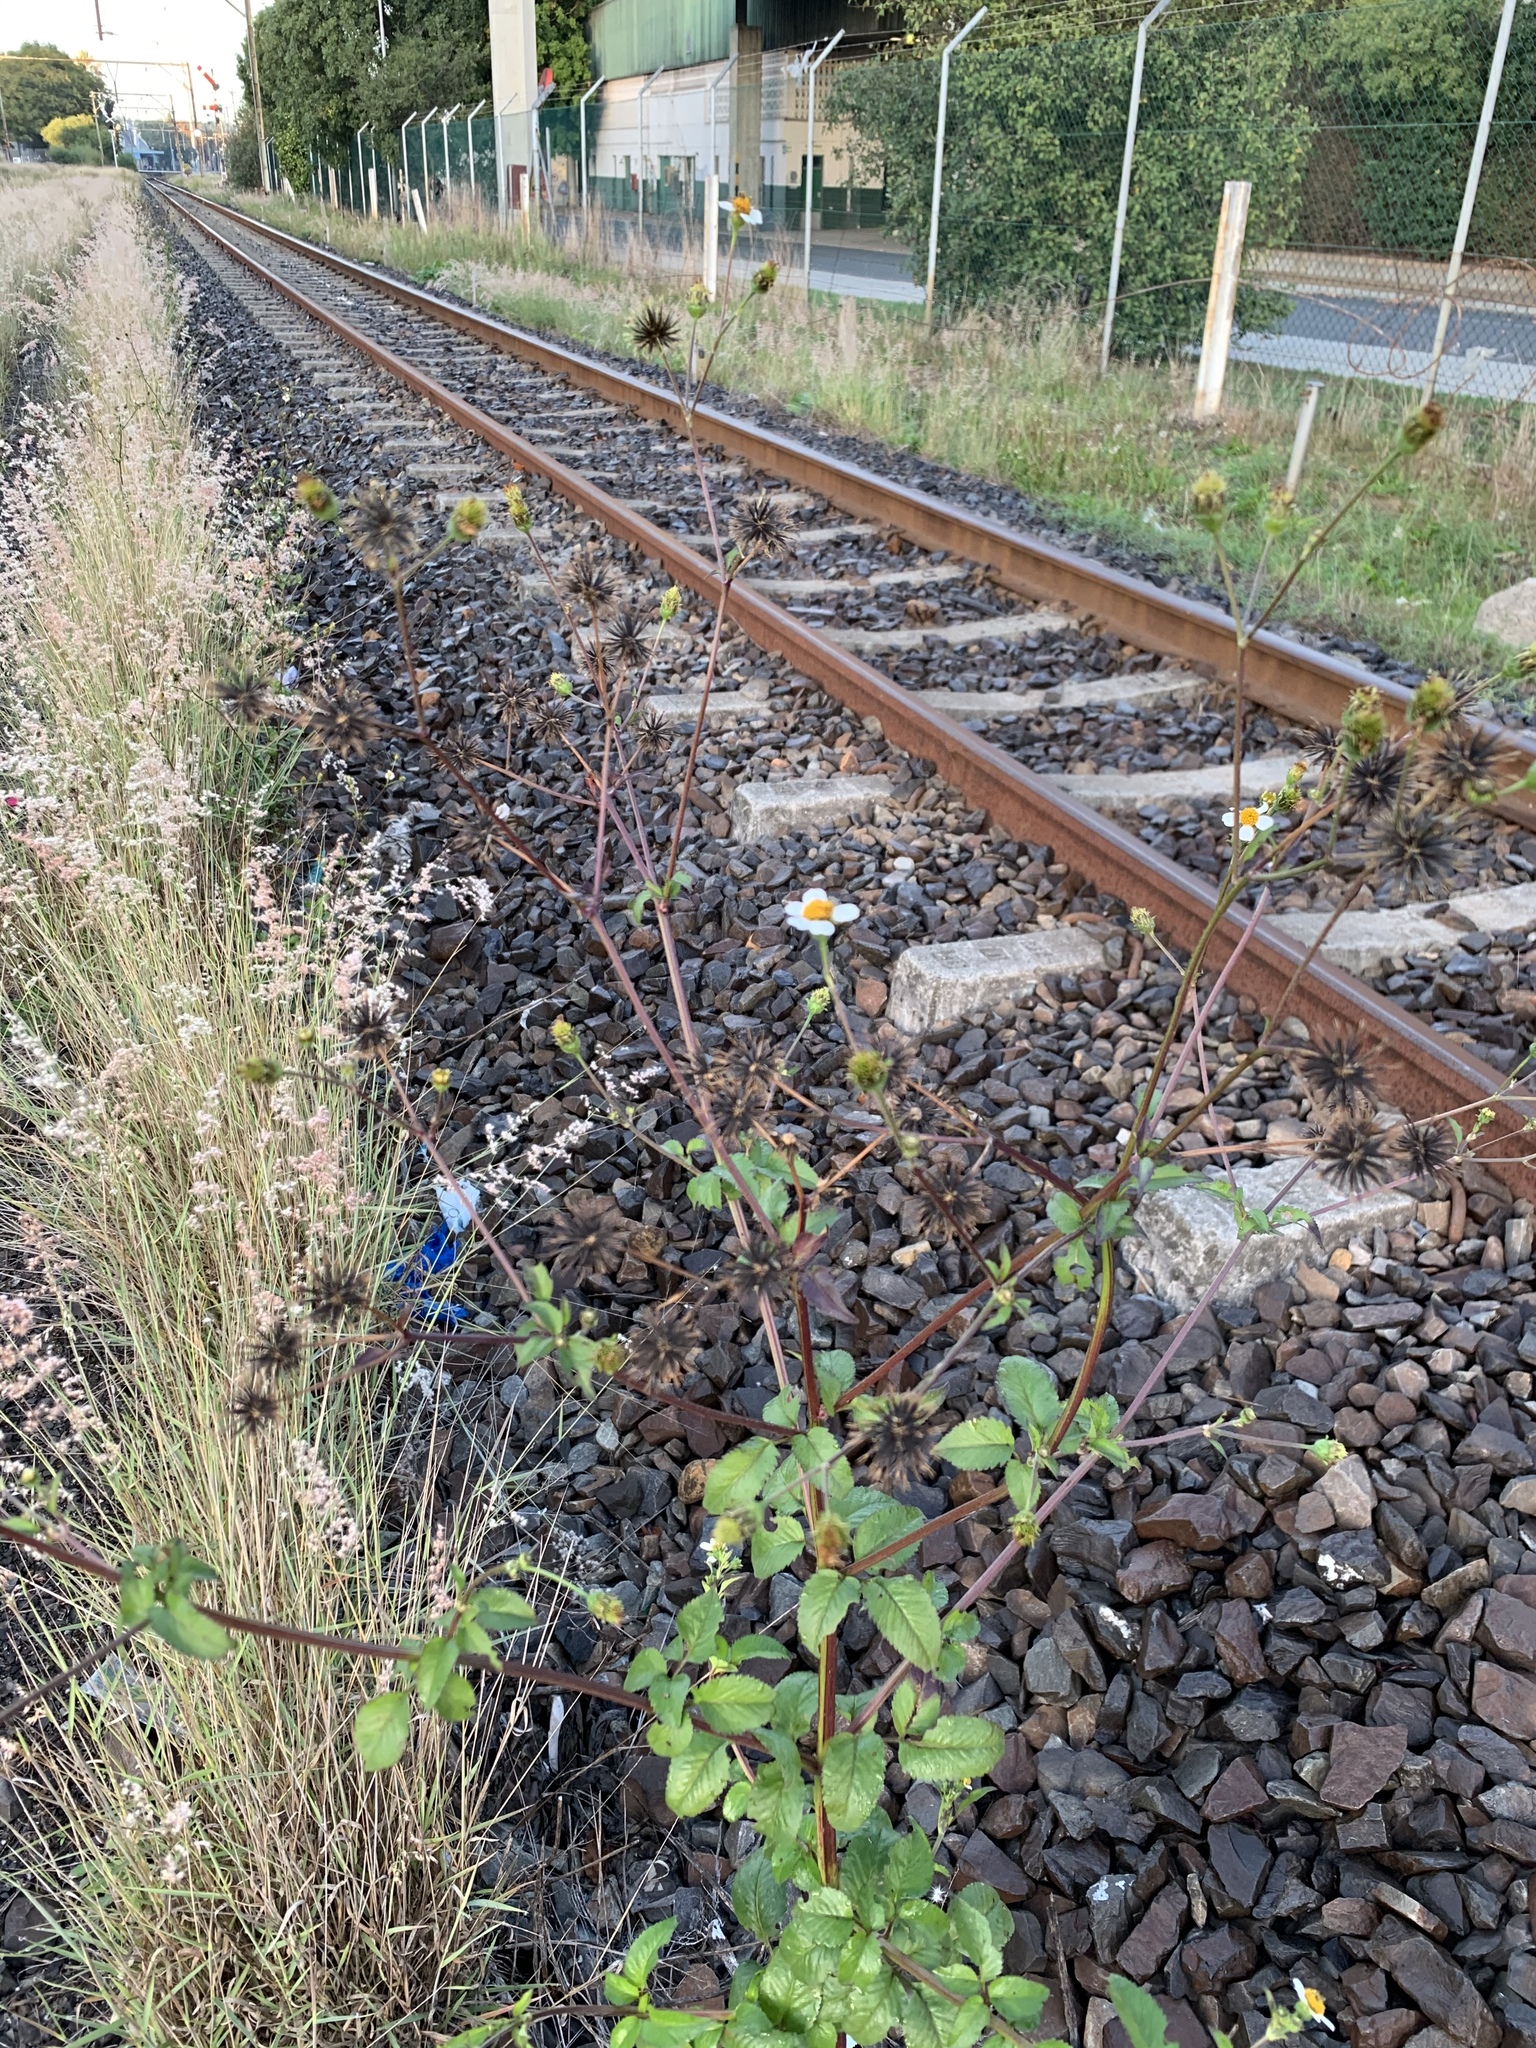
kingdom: Plantae
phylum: Tracheophyta
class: Magnoliopsida
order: Asterales
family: Asteraceae
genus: Bidens
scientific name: Bidens pilosa
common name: Black-jack
